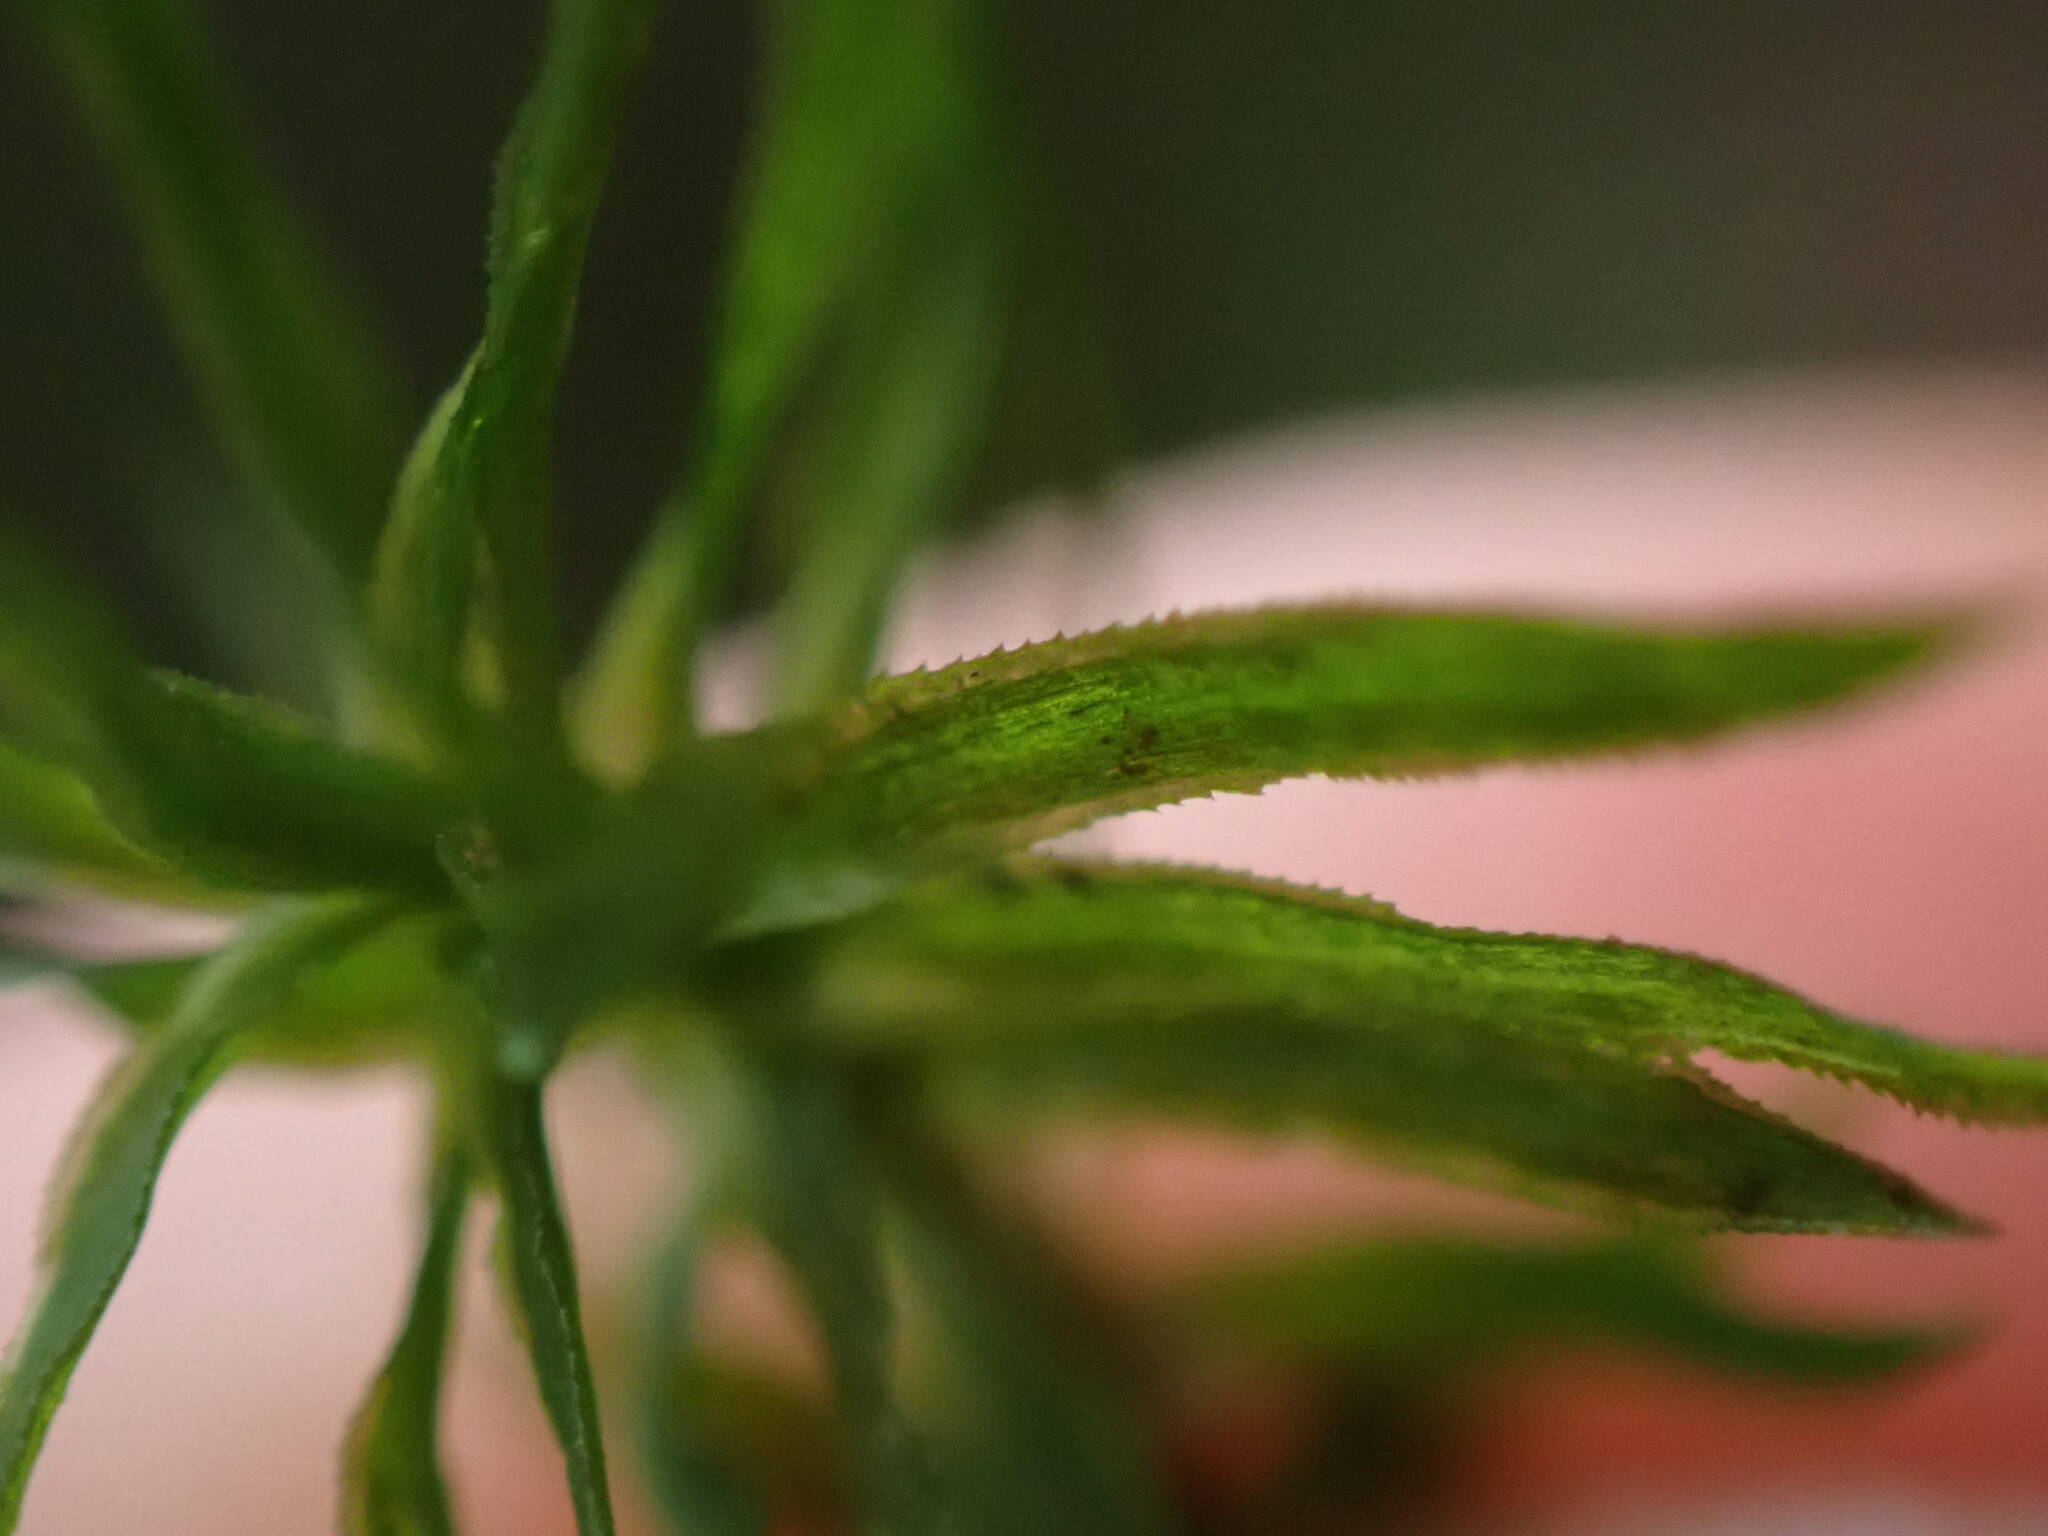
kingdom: Plantae
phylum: Bryophyta
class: Polytrichopsida
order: Polytrichales
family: Polytrichaceae
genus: Pogonatum
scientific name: Pogonatum contortum
